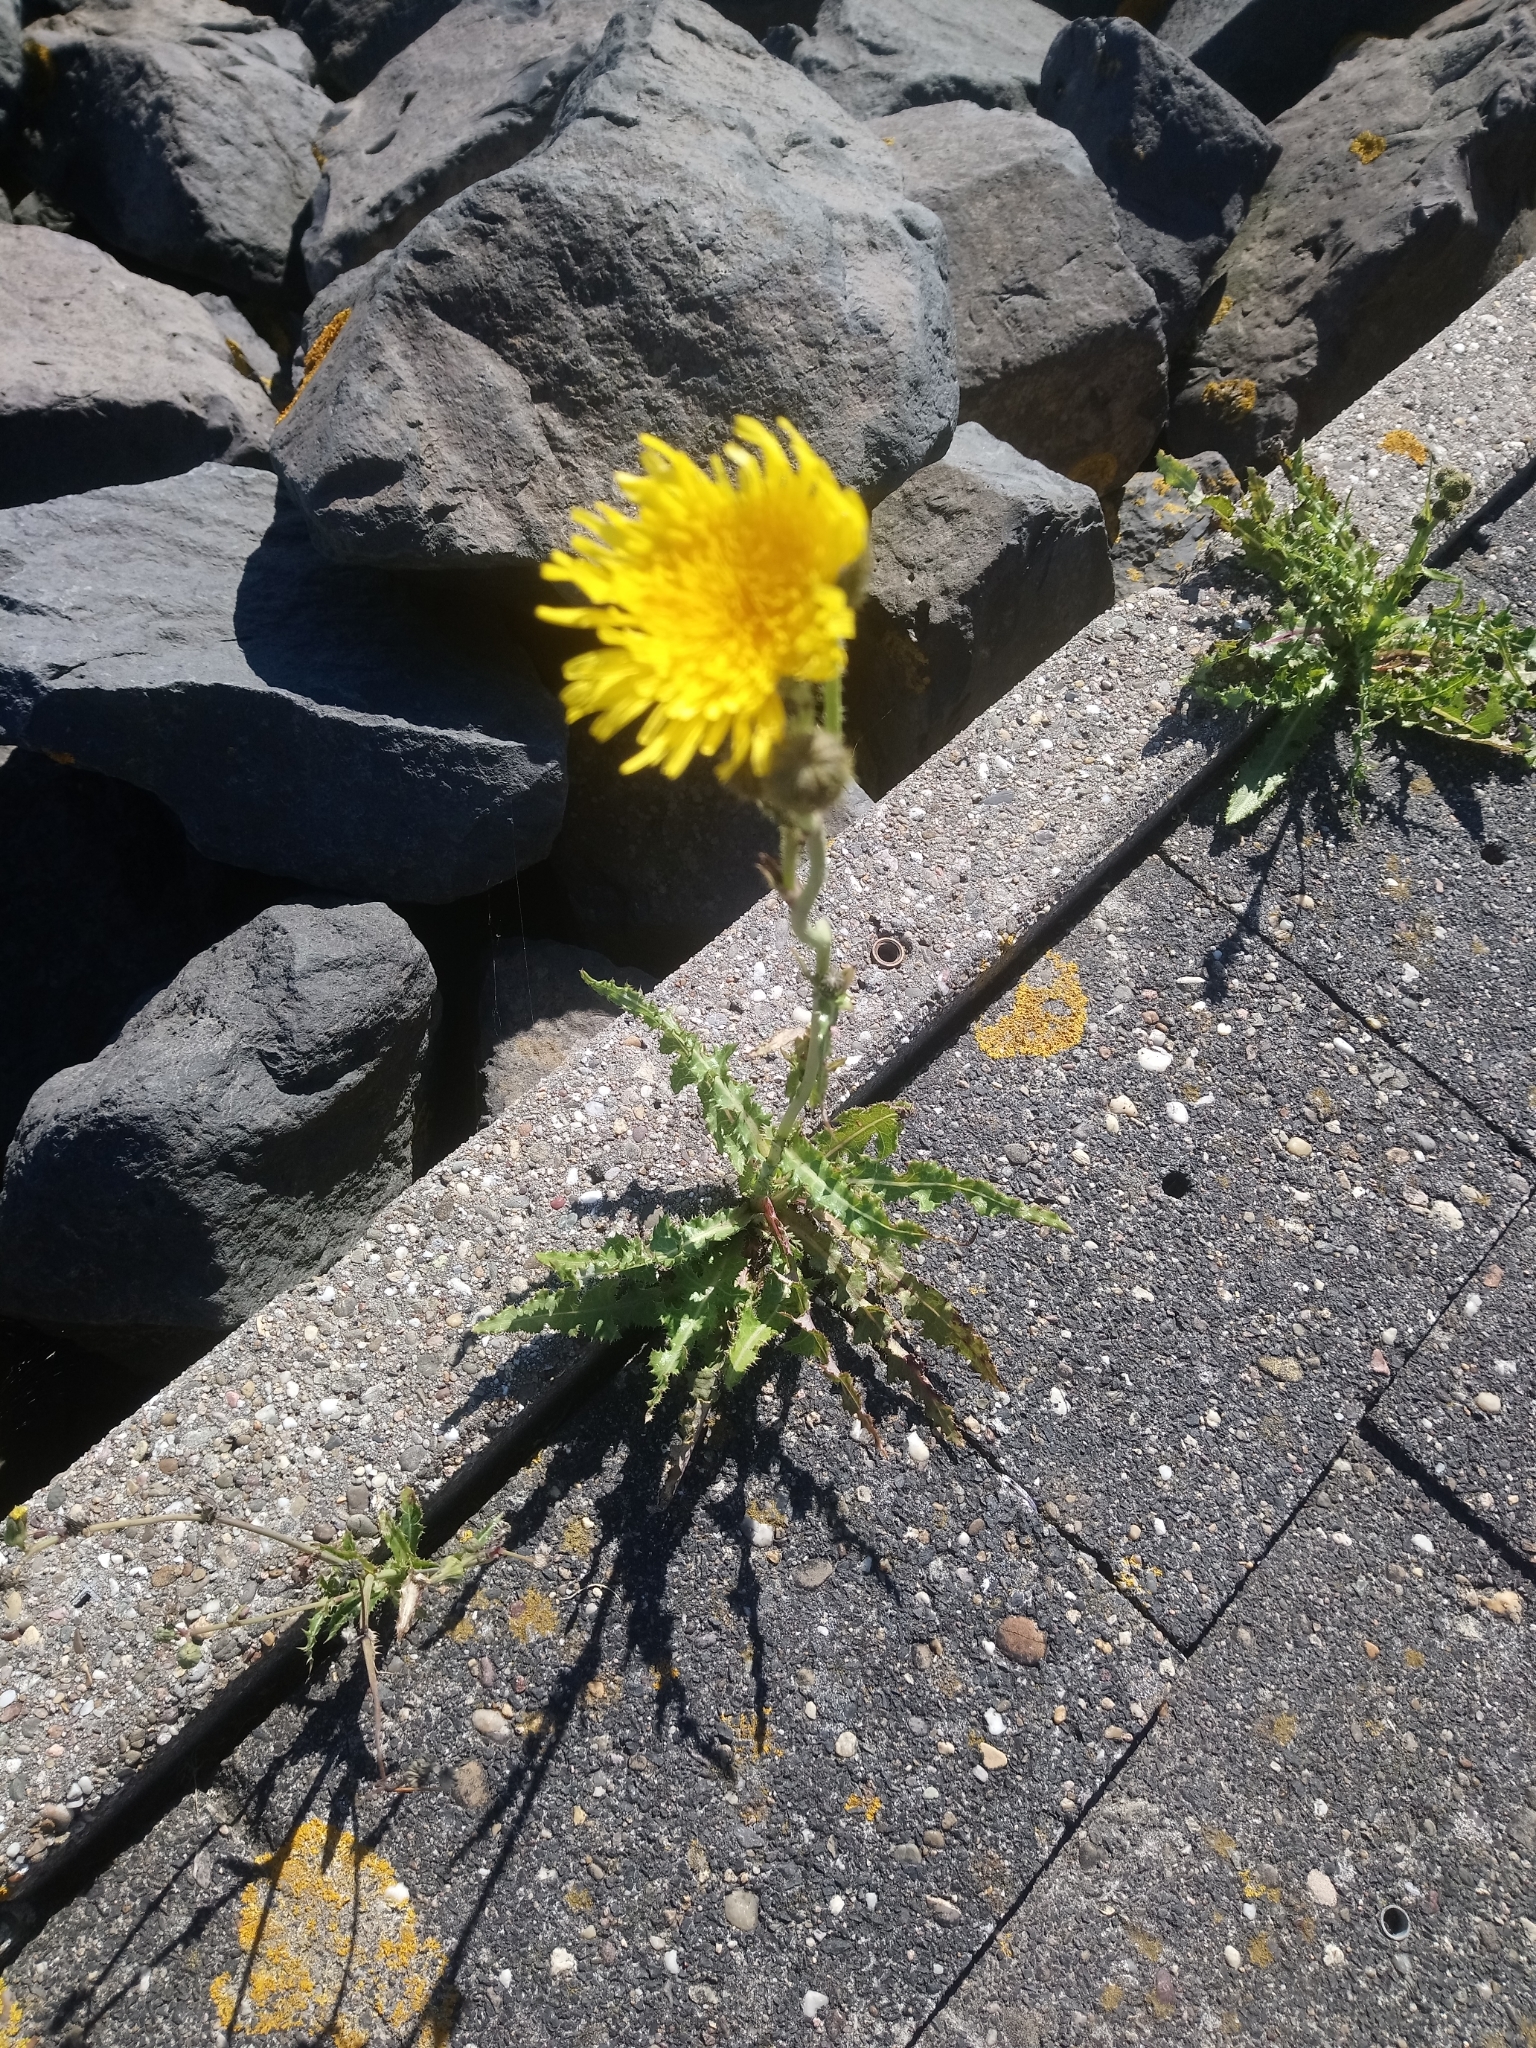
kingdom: Plantae
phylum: Tracheophyta
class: Magnoliopsida
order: Asterales
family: Asteraceae
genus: Sonchus
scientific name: Sonchus arvensis
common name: Perennial sow-thistle
